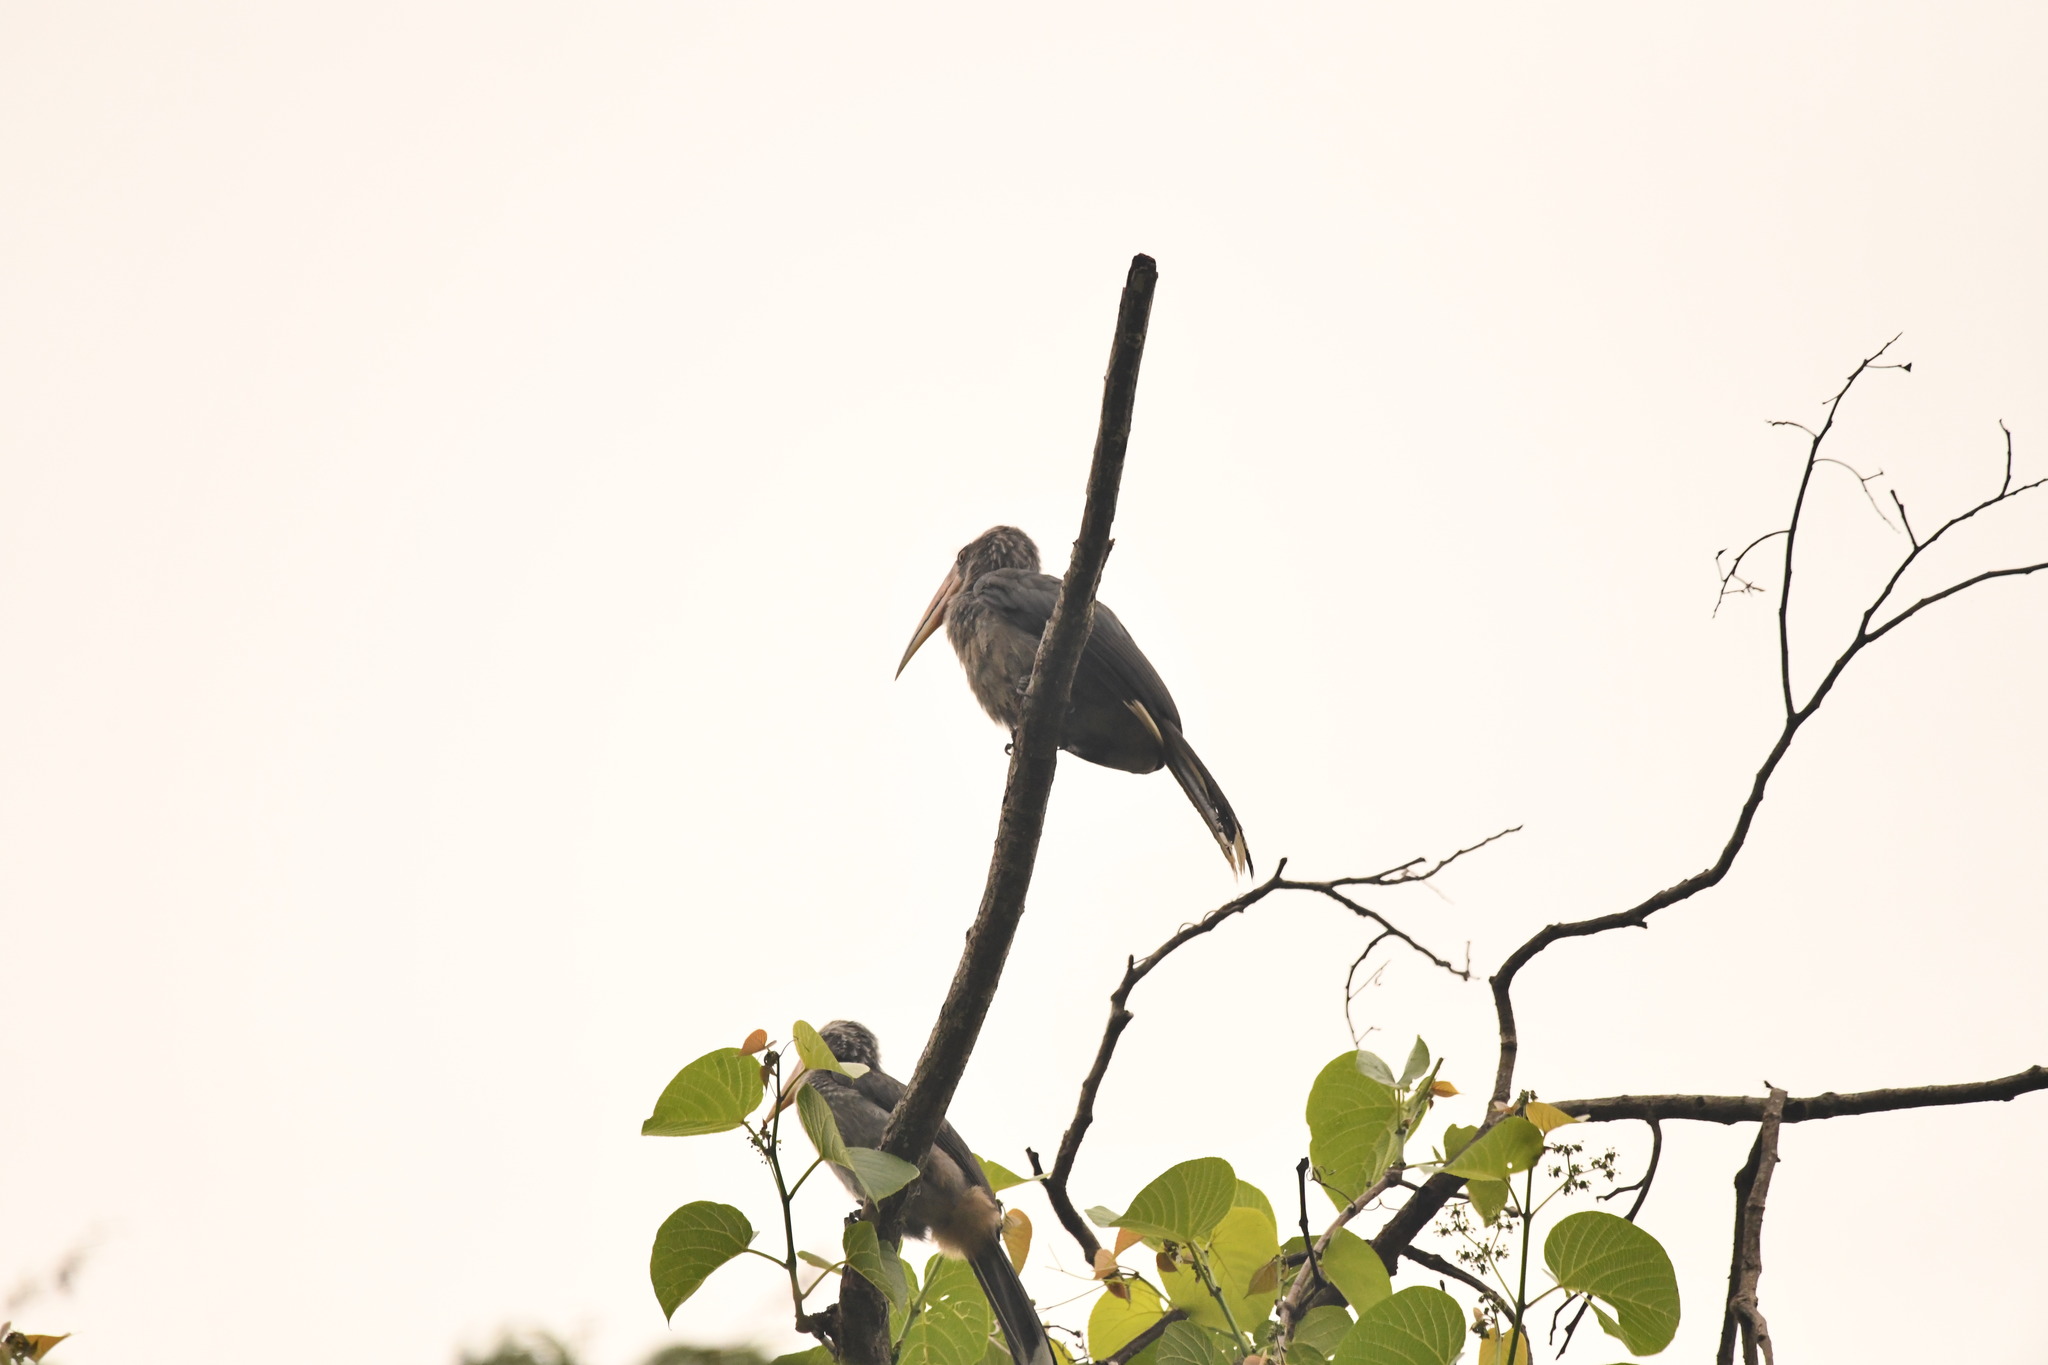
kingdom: Animalia
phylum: Chordata
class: Aves
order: Bucerotiformes
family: Bucerotidae
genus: Ocyceros
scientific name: Ocyceros griseus
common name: Malabar grey hornbill
